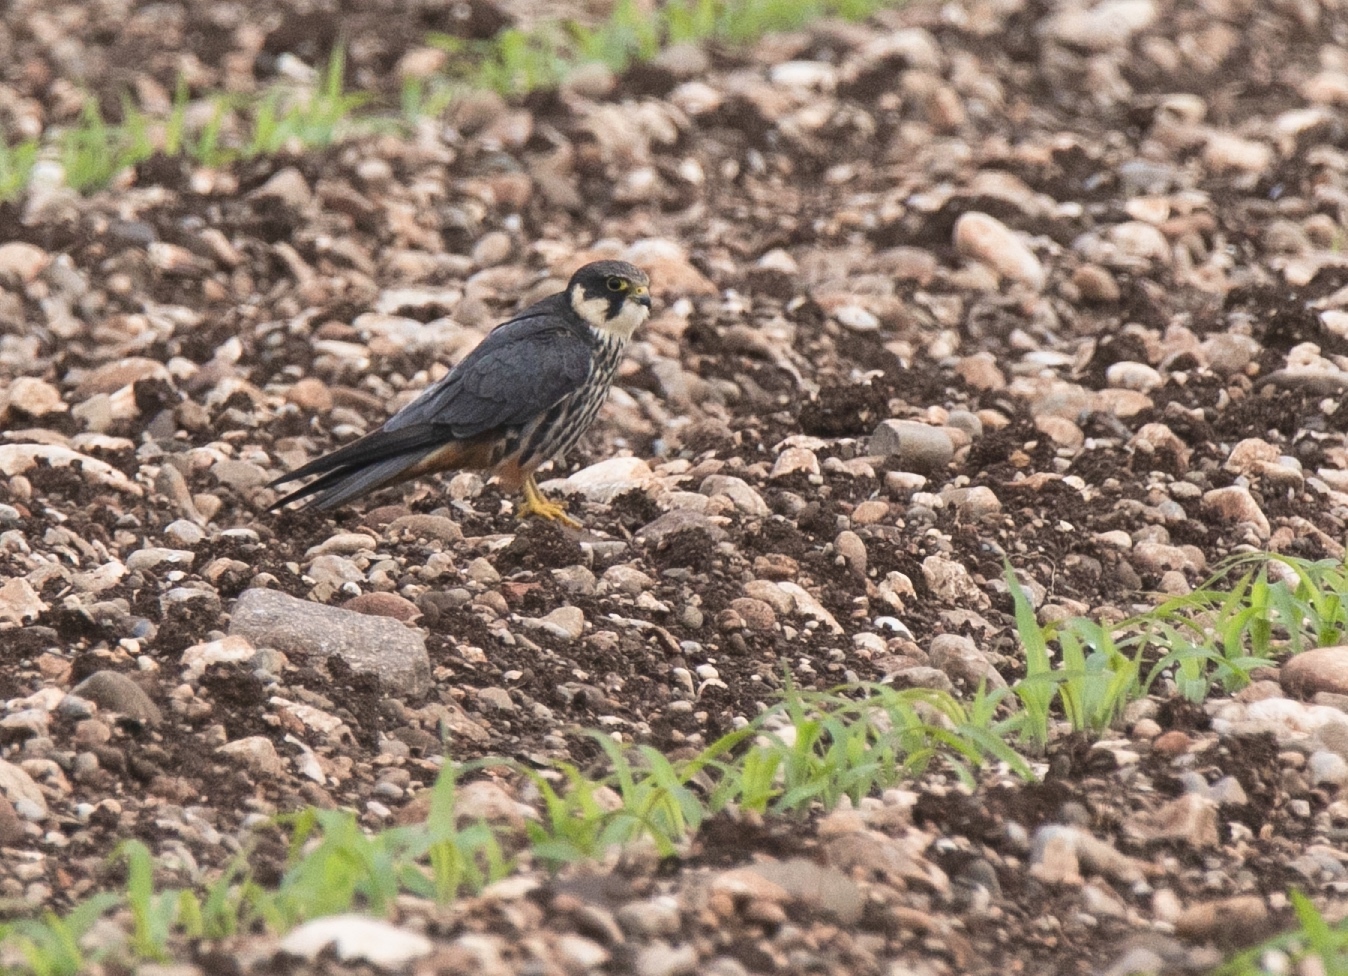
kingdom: Animalia
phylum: Chordata
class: Aves
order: Falconiformes
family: Falconidae
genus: Falco
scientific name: Falco subbuteo
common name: Eurasian hobby
